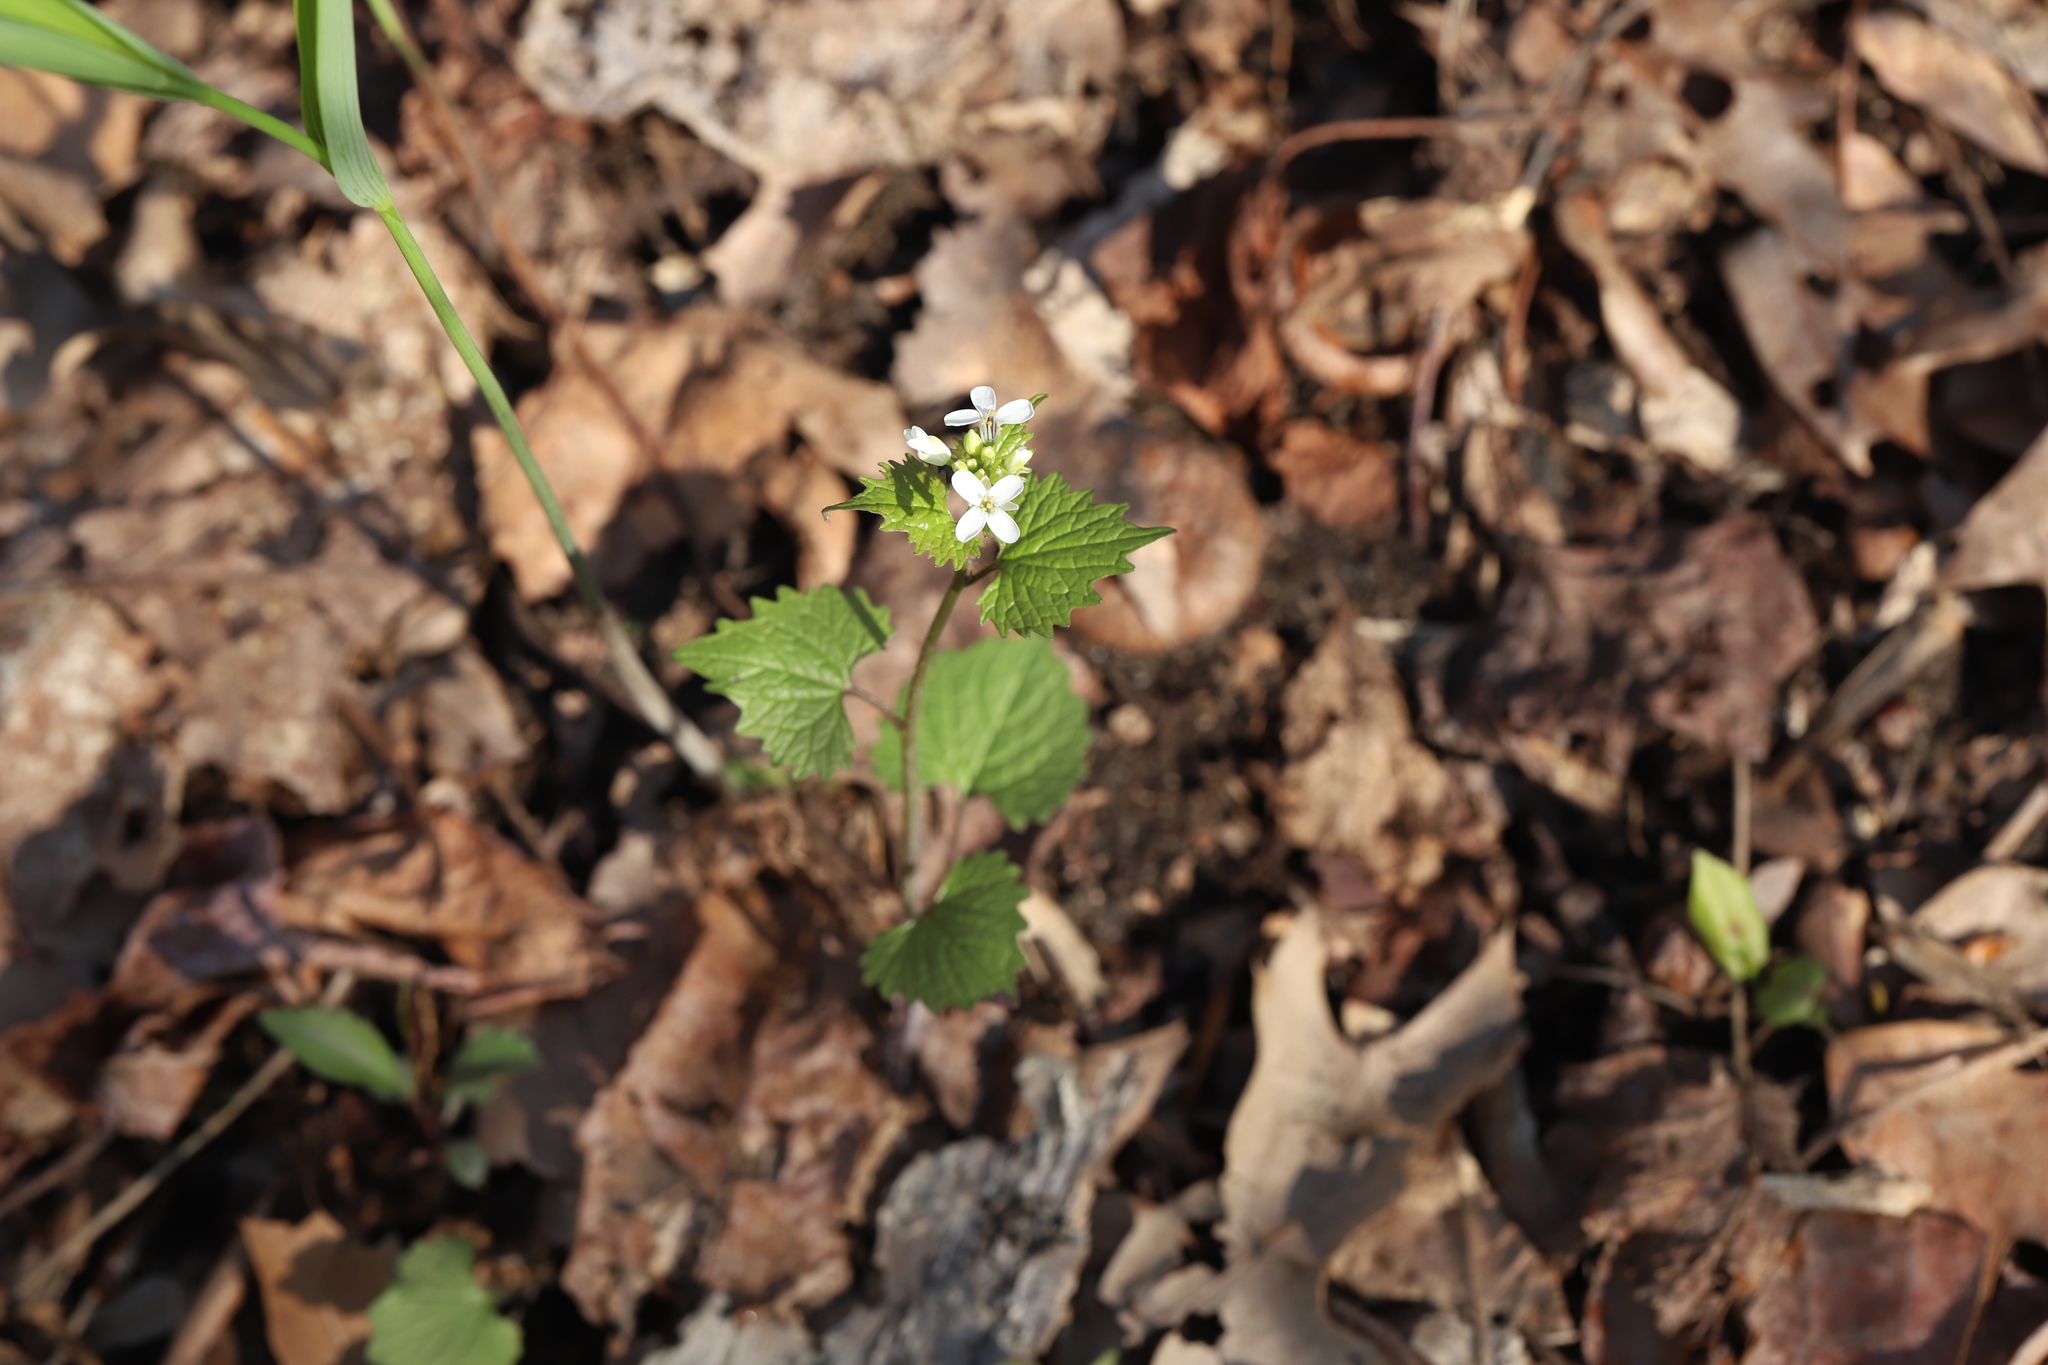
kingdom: Plantae
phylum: Tracheophyta
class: Magnoliopsida
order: Brassicales
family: Brassicaceae
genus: Alliaria
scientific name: Alliaria petiolata
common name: Garlic mustard
